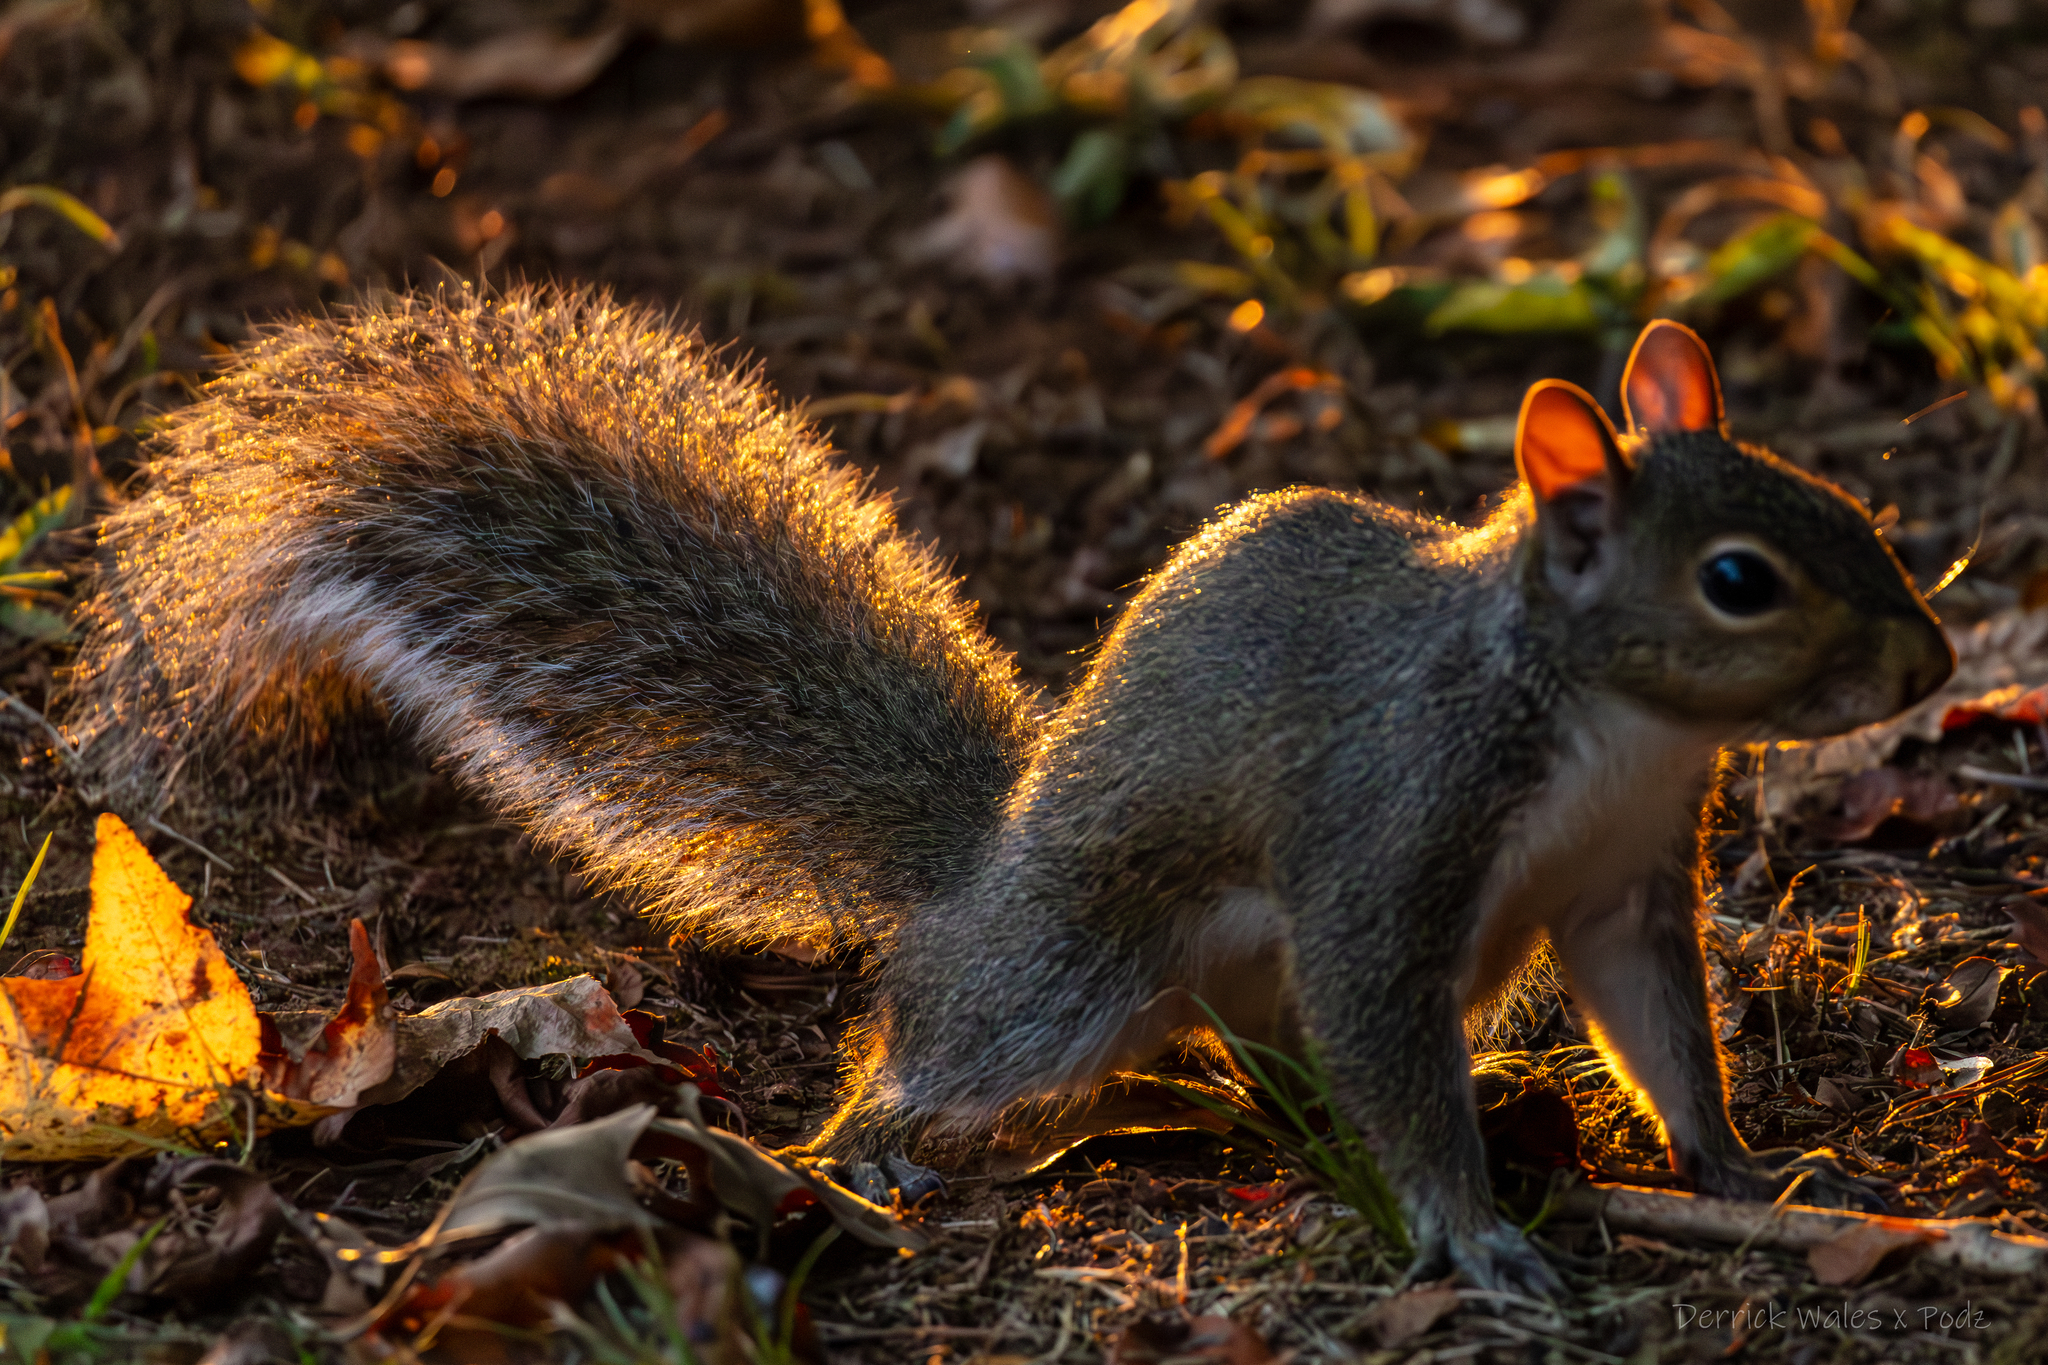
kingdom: Animalia
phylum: Chordata
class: Mammalia
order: Rodentia
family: Sciuridae
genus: Sciurus
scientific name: Sciurus carolinensis
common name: Eastern gray squirrel
